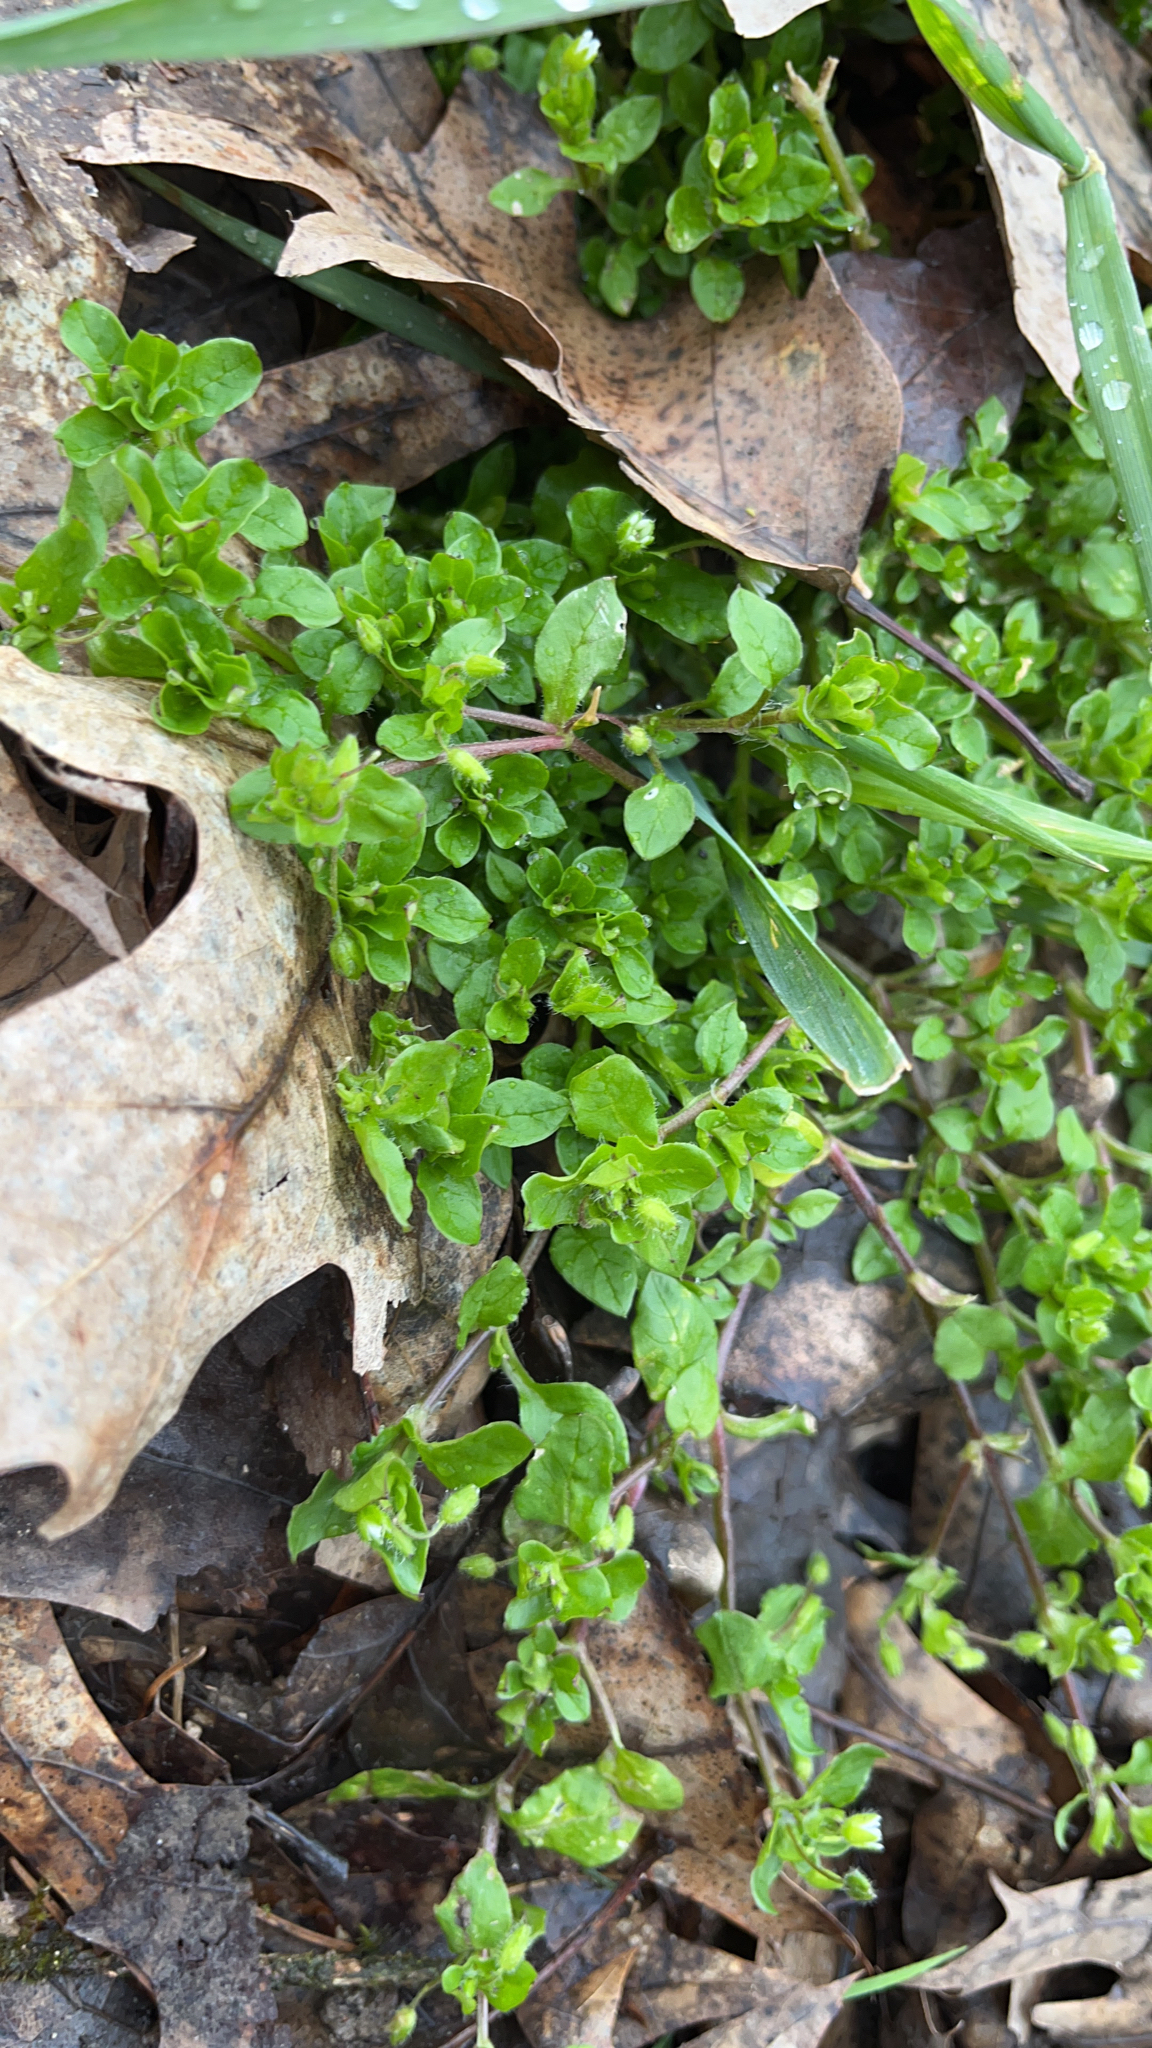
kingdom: Plantae
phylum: Tracheophyta
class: Magnoliopsida
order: Caryophyllales
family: Caryophyllaceae
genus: Stellaria
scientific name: Stellaria media
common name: Common chickweed
